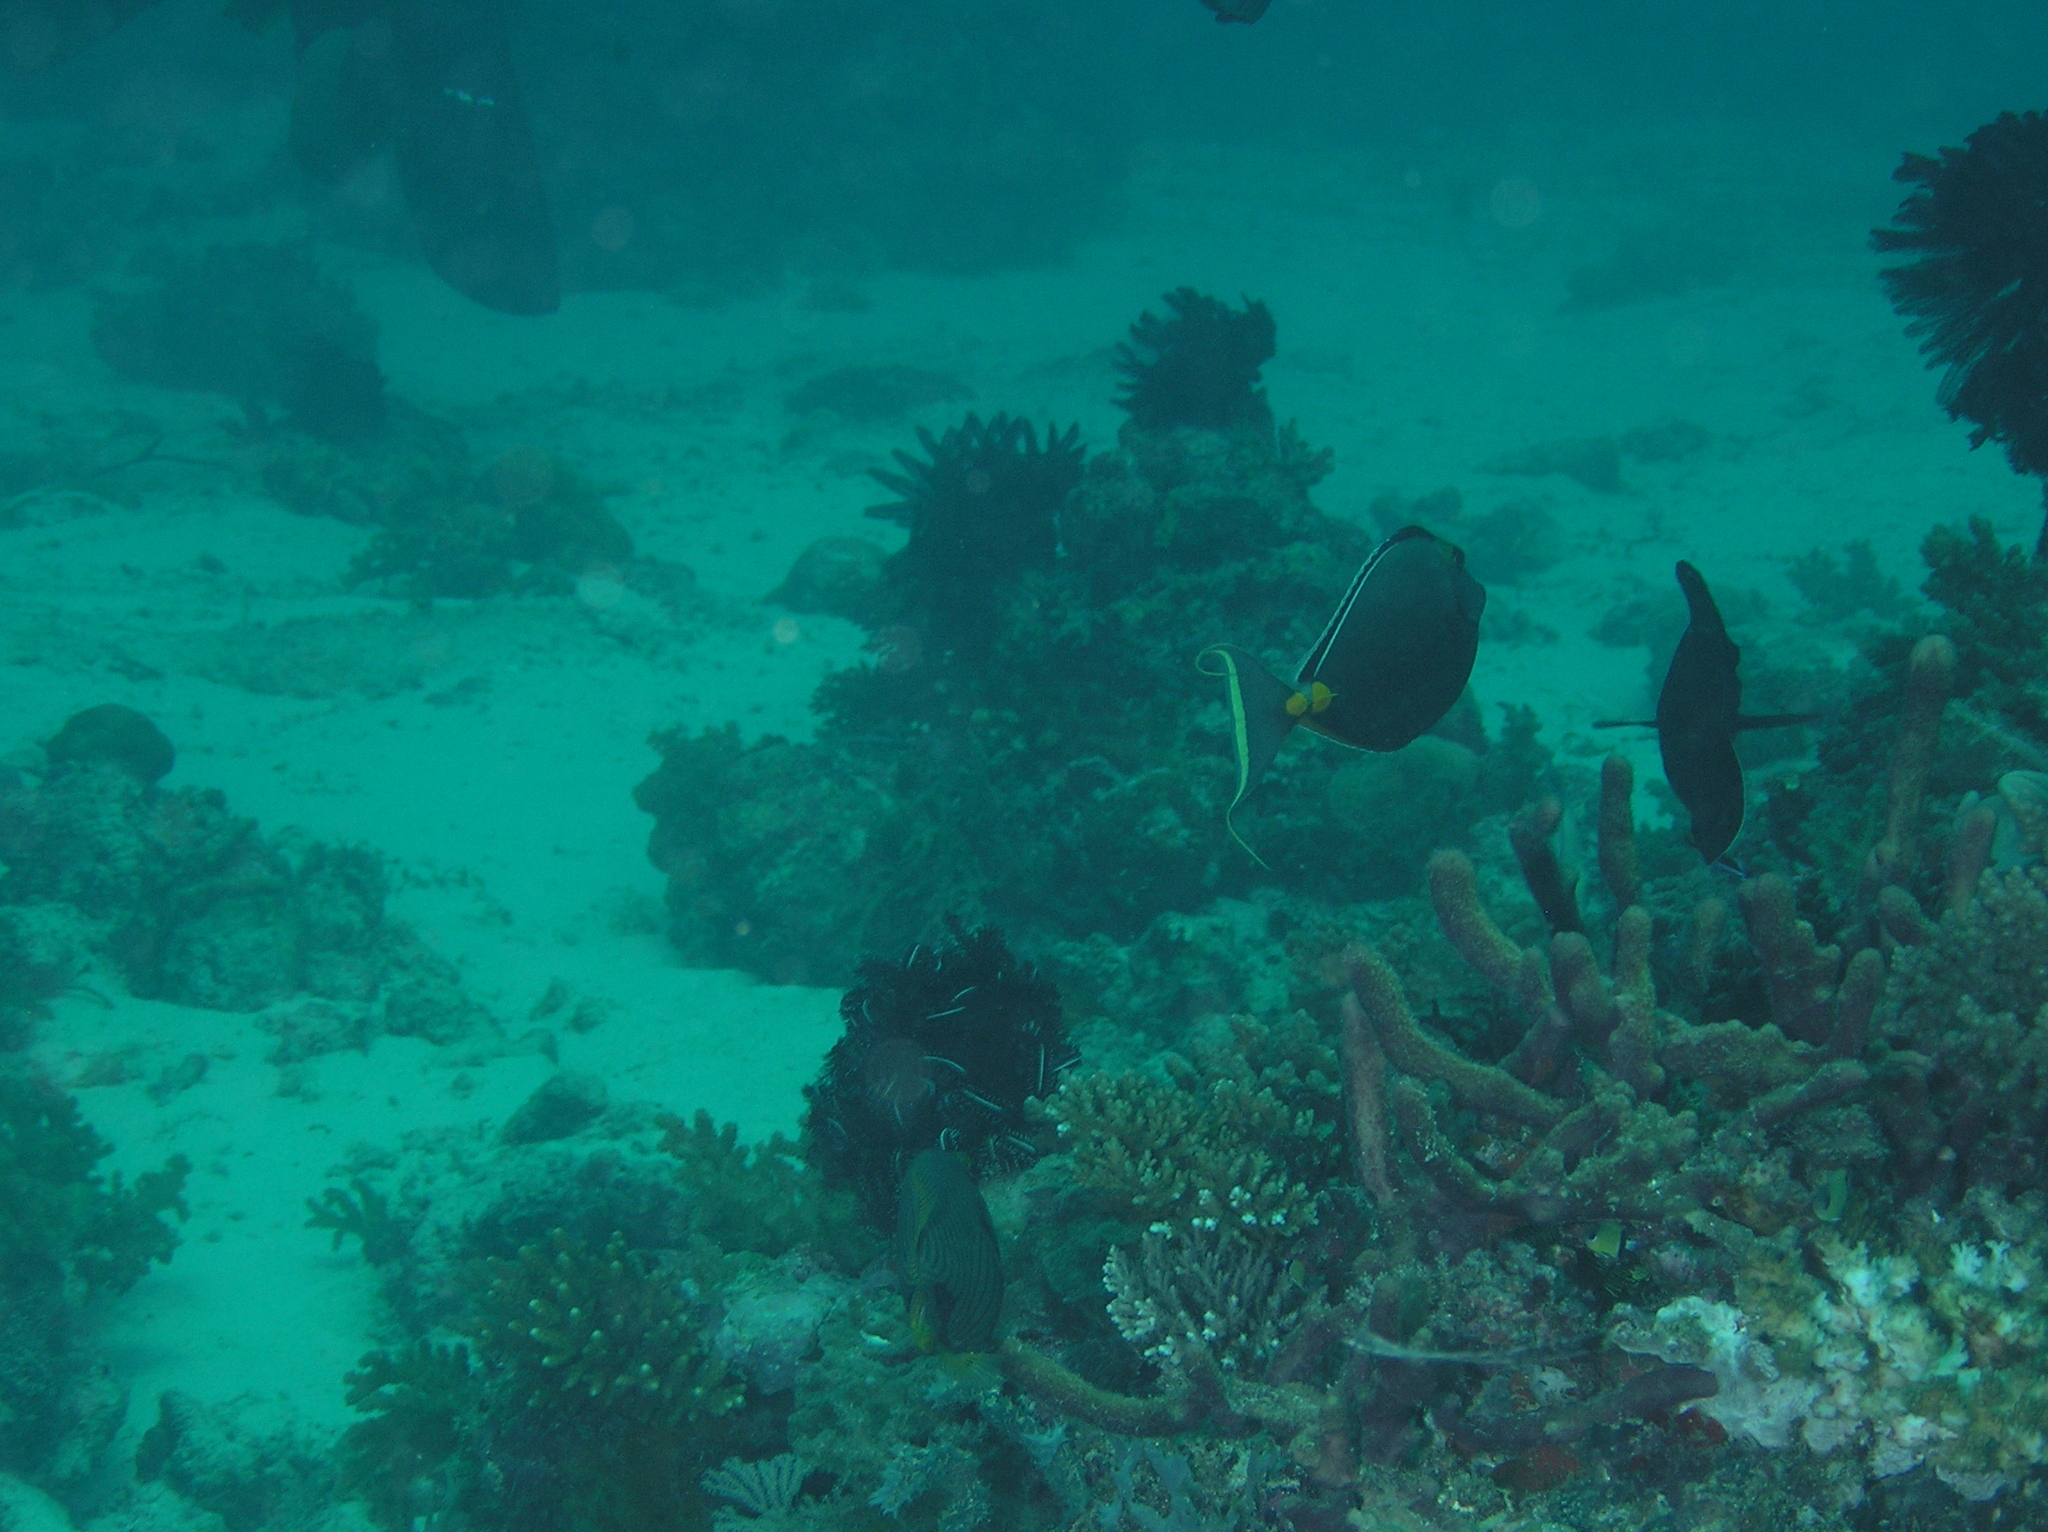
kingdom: Animalia
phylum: Chordata
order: Perciformes
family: Acanthuridae
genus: Naso
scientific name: Naso lituratus
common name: Orangespine unicornfish
